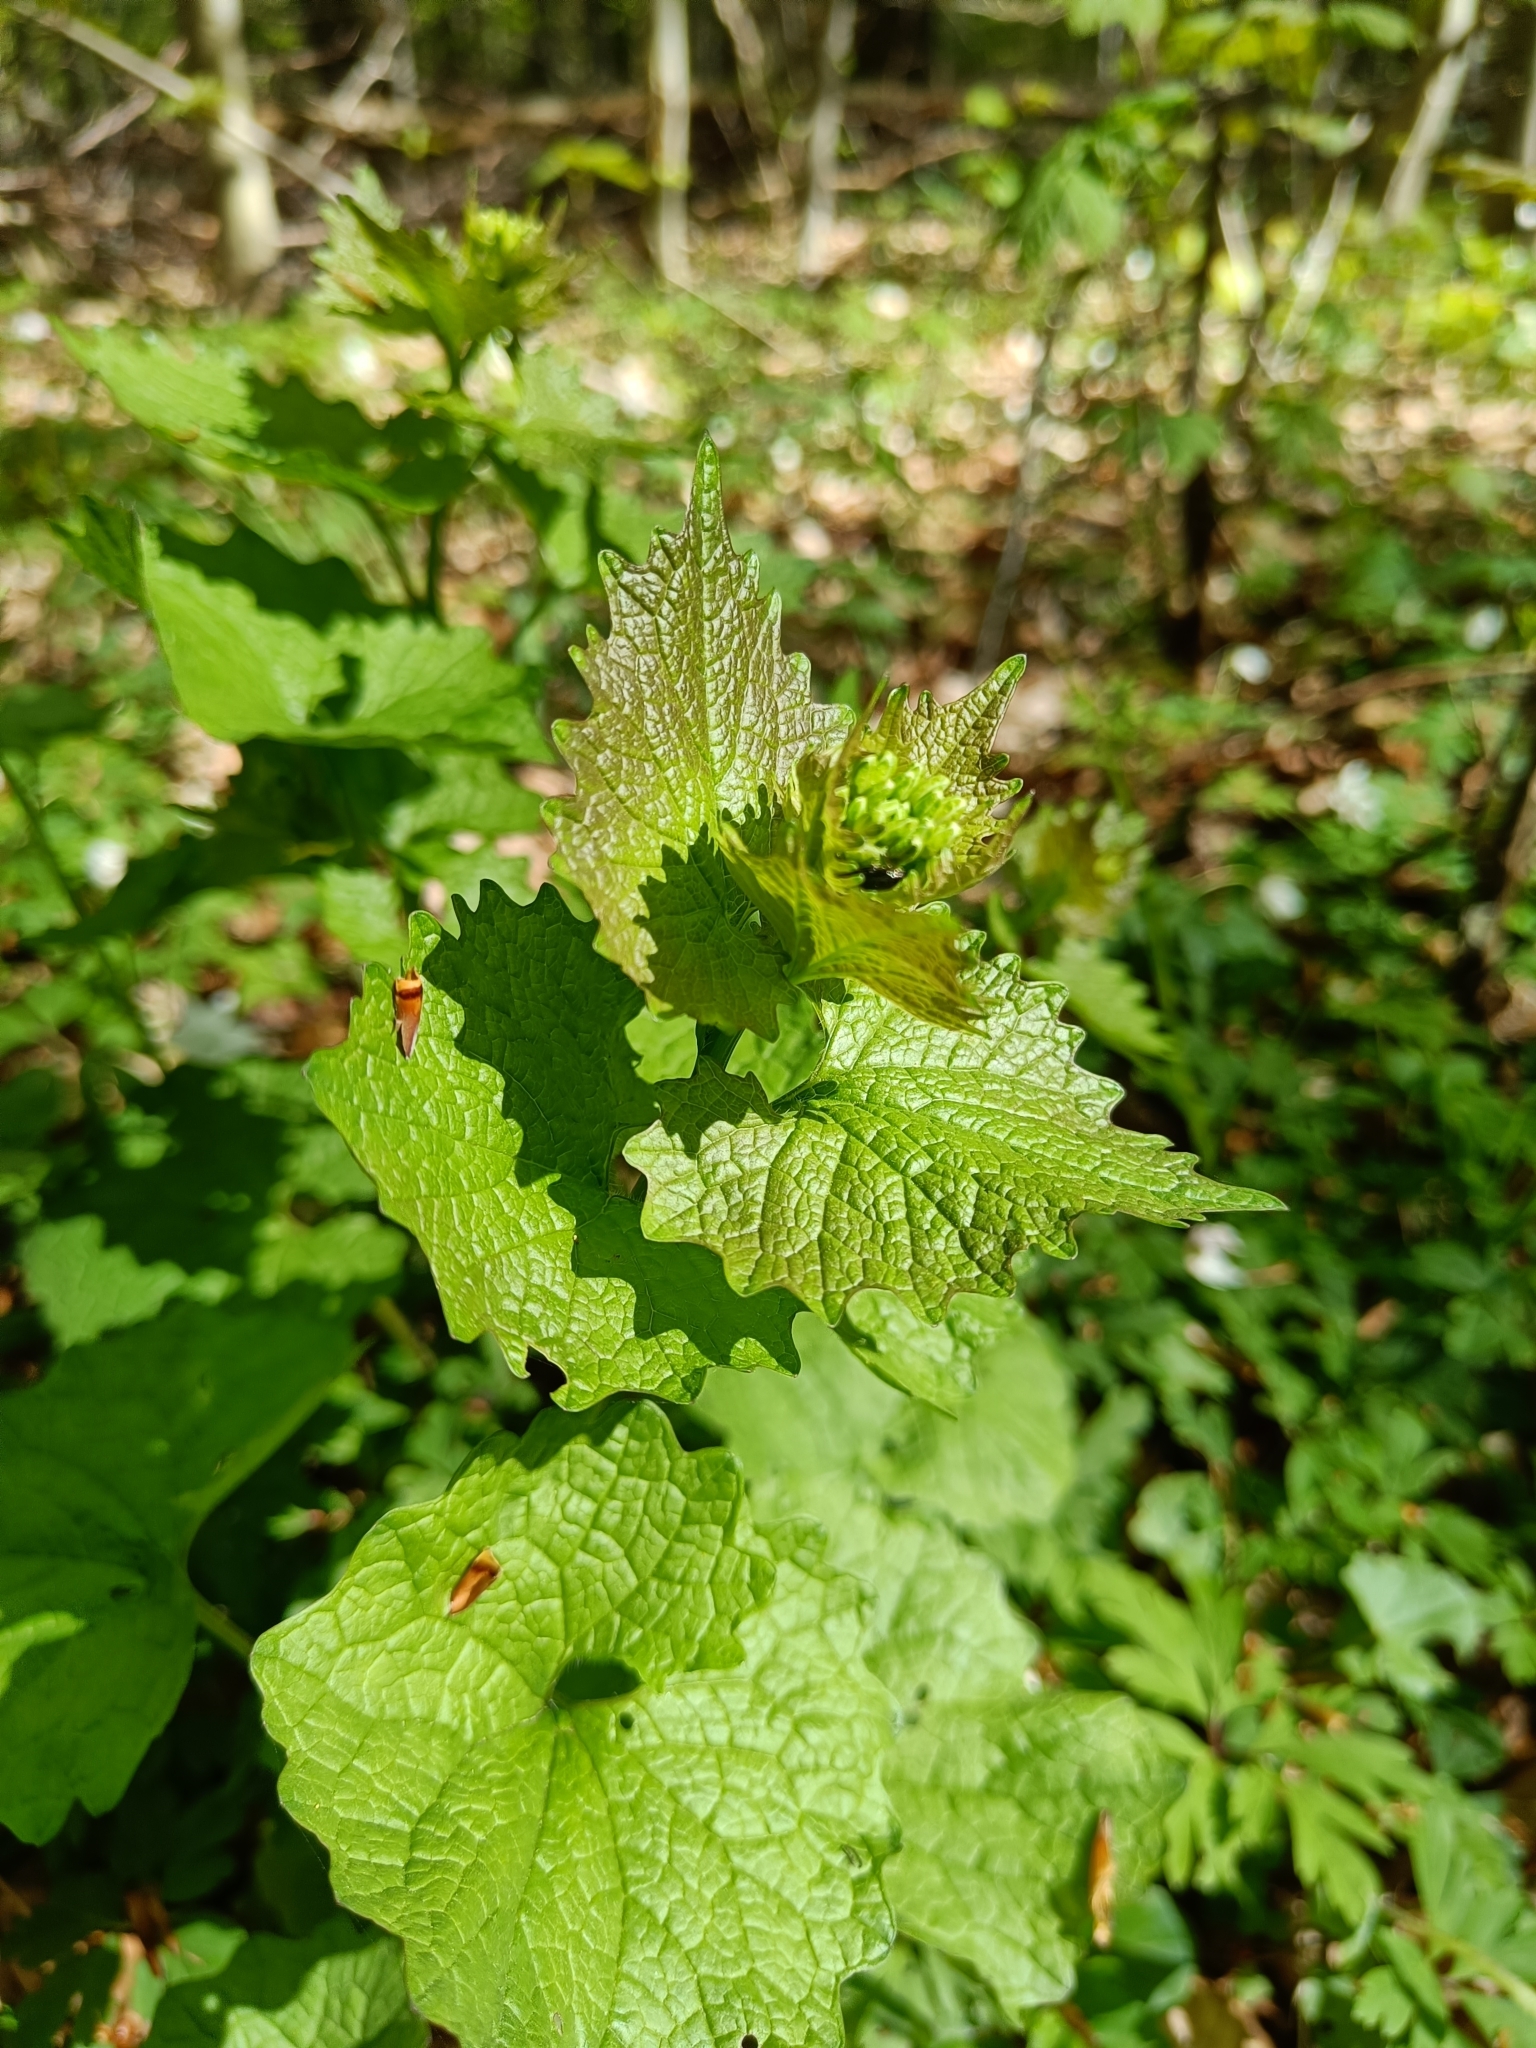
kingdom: Plantae
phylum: Tracheophyta
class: Magnoliopsida
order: Brassicales
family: Brassicaceae
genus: Alliaria
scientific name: Alliaria petiolata
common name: Garlic mustard
